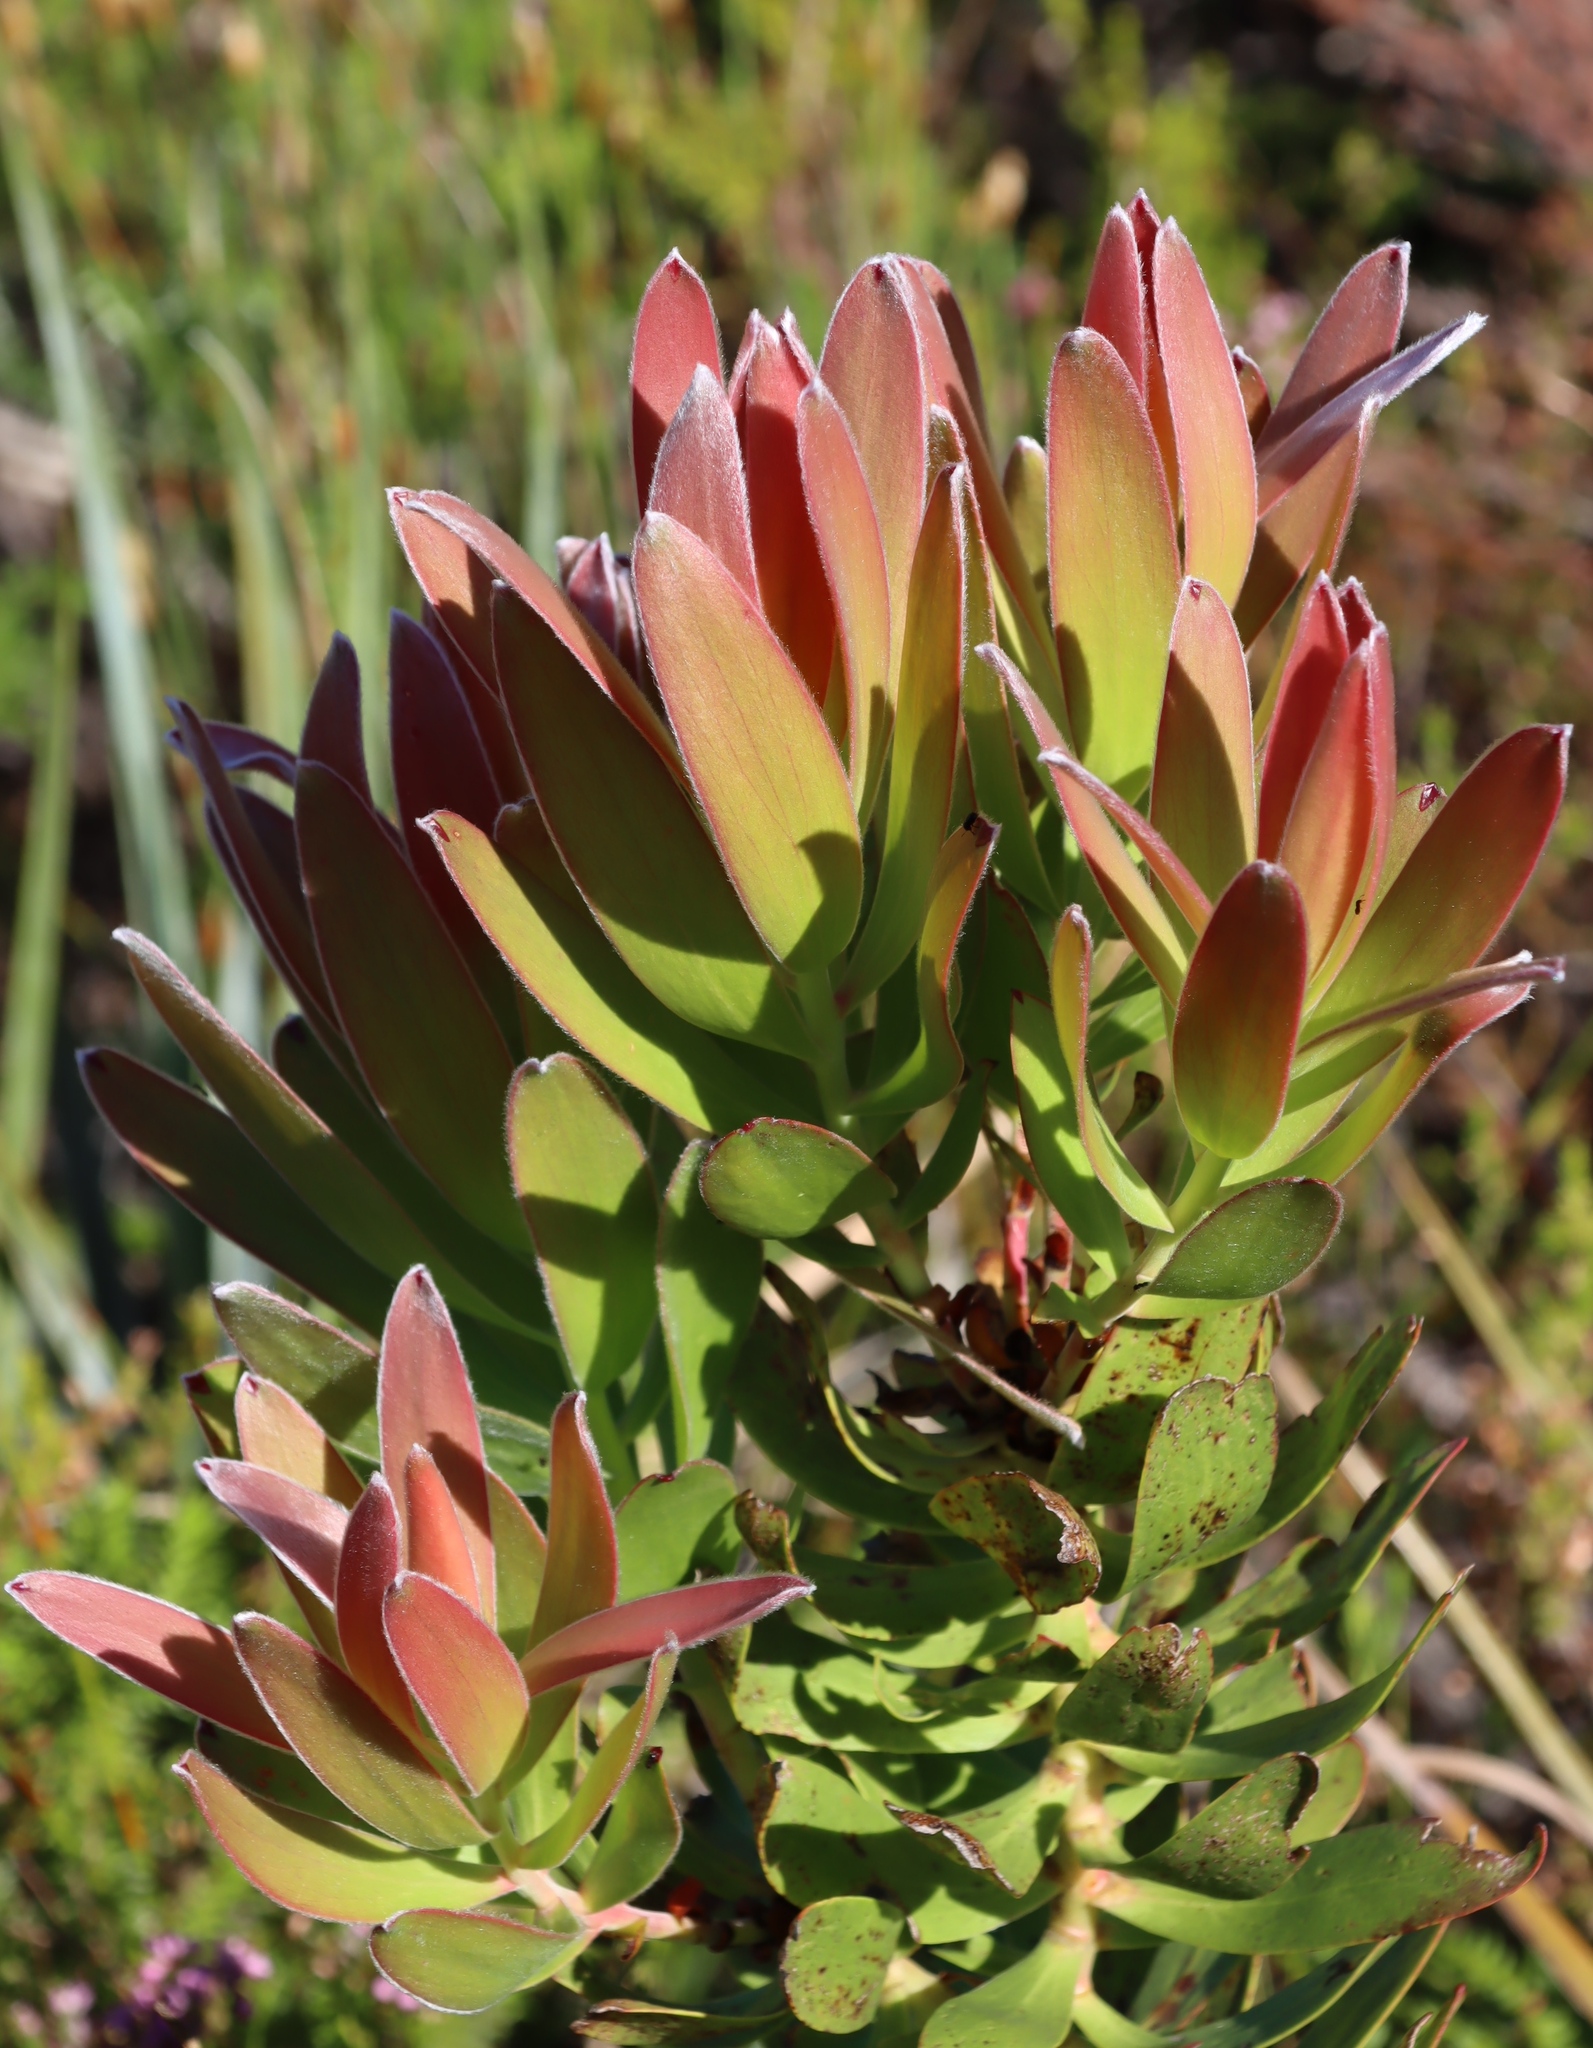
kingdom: Plantae
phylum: Tracheophyta
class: Magnoliopsida
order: Proteales
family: Proteaceae
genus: Leucadendron
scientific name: Leucadendron microcephalum
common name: Oilbract conebush
